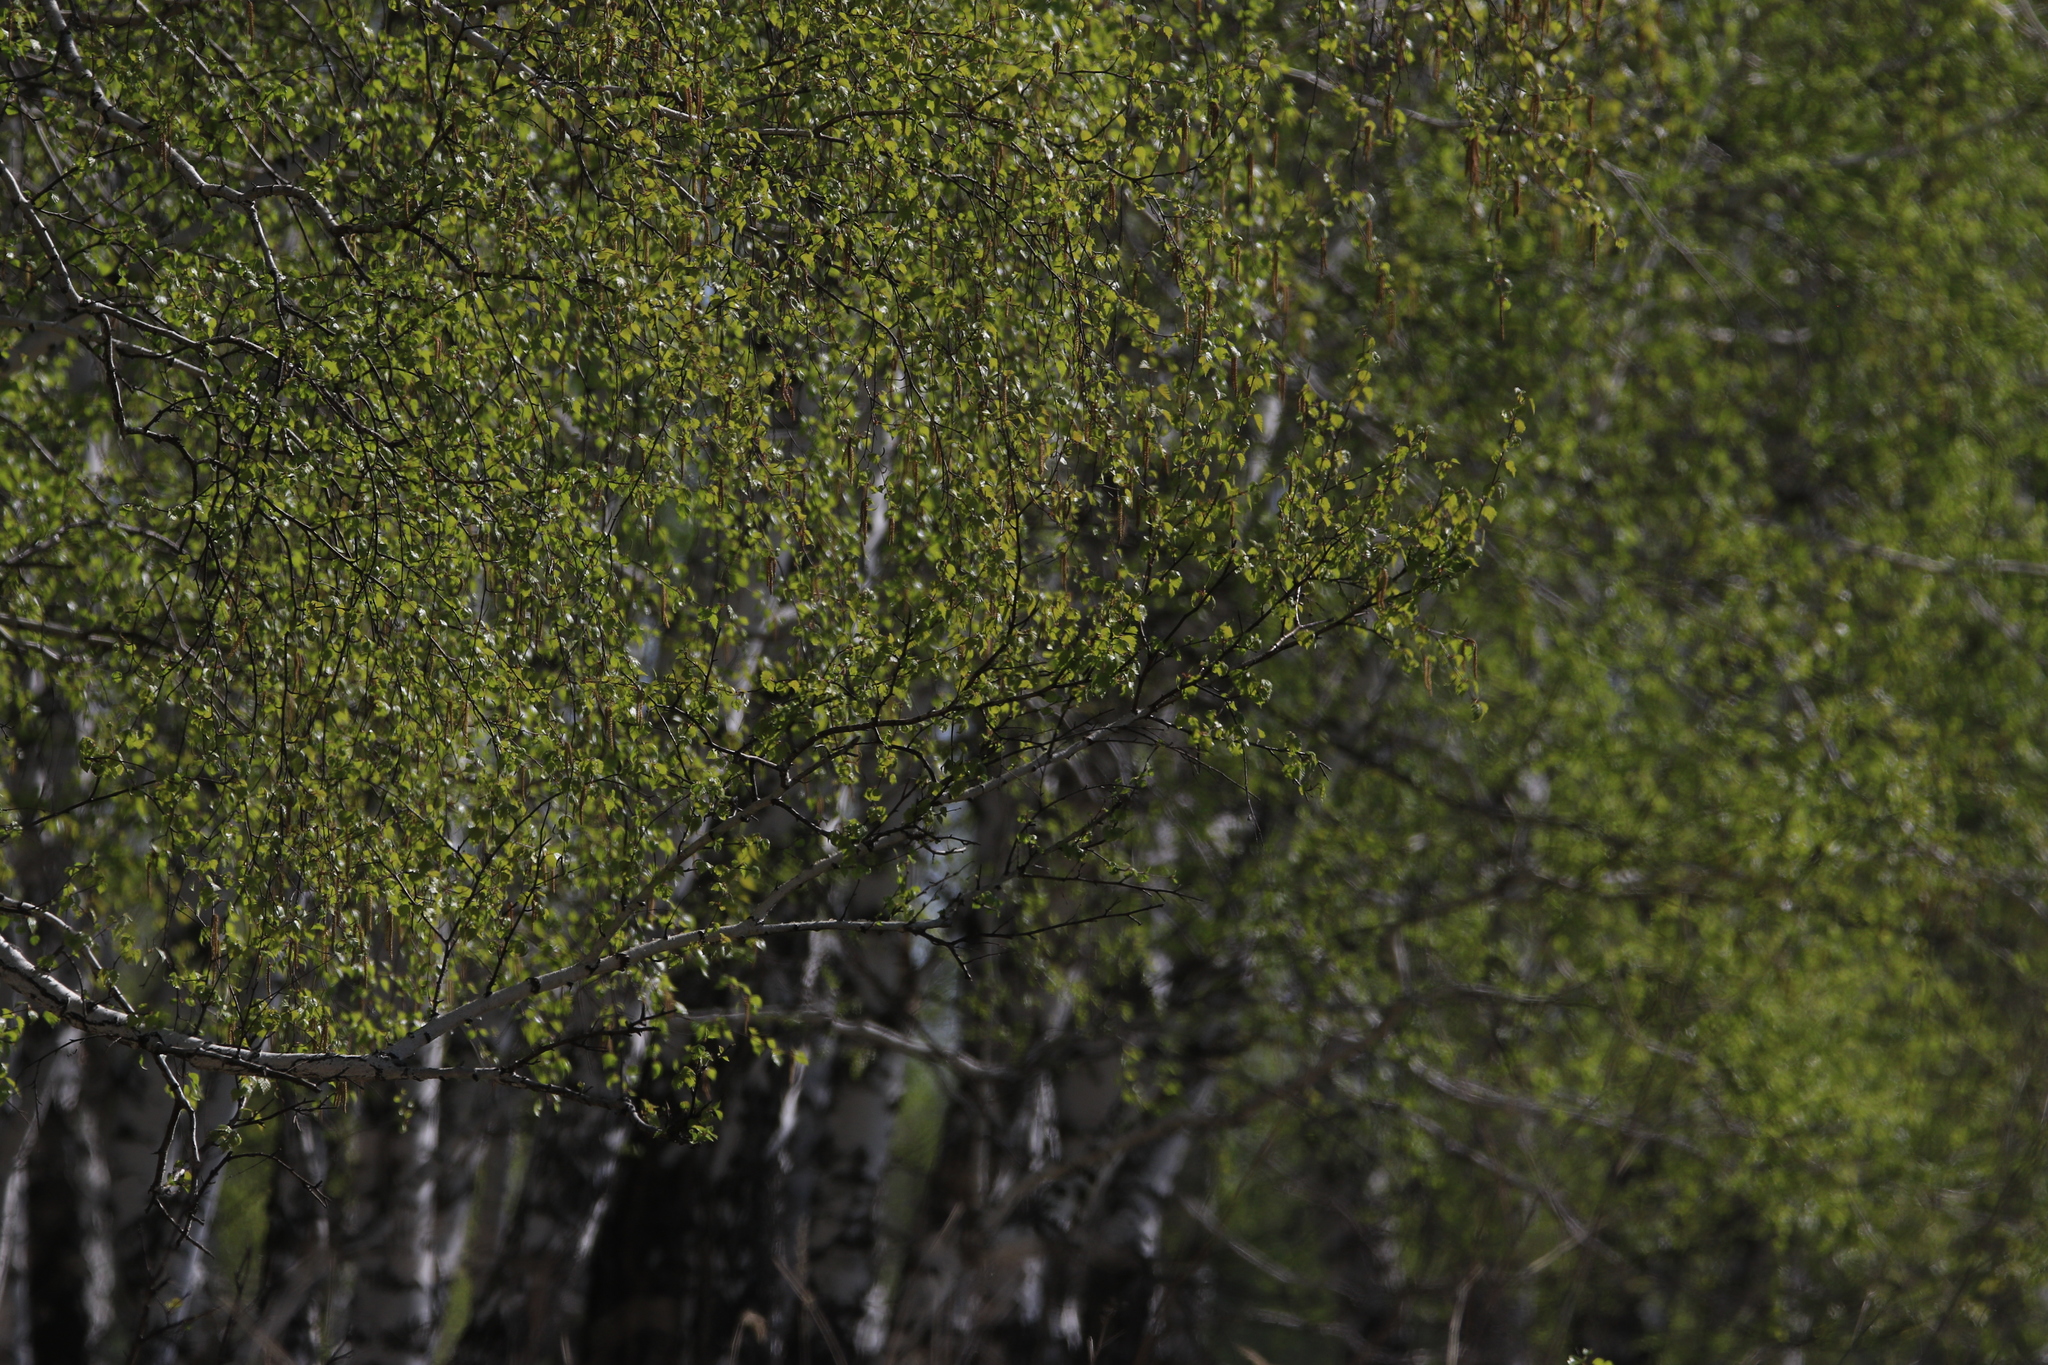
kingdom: Plantae
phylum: Tracheophyta
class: Magnoliopsida
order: Fagales
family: Betulaceae
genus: Betula
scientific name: Betula pendula
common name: Silver birch
